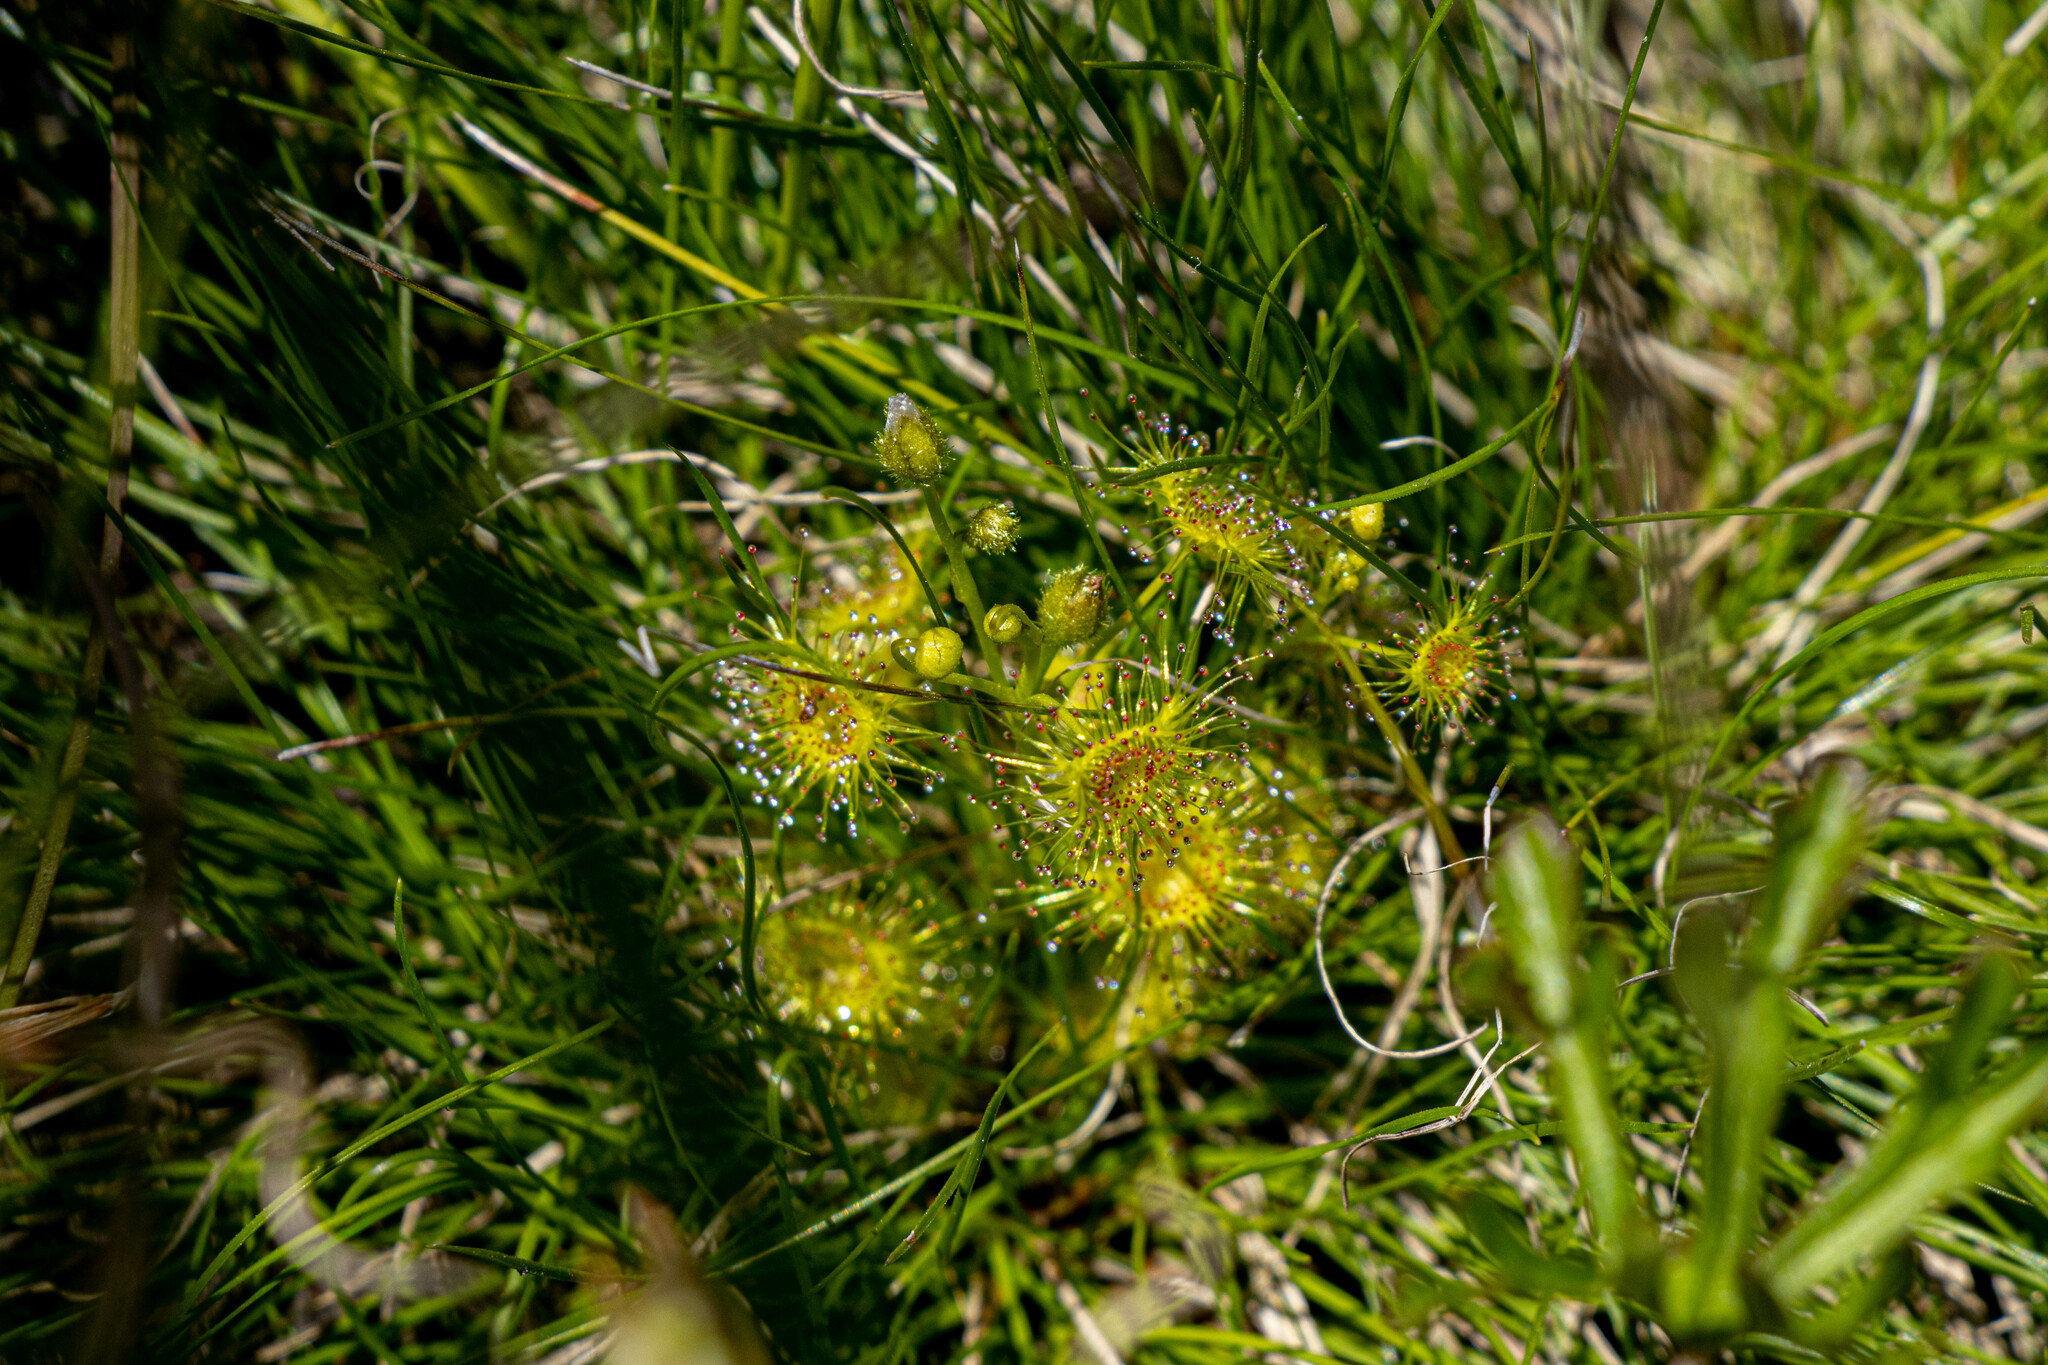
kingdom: Plantae
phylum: Tracheophyta
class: Magnoliopsida
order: Caryophyllales
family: Droseraceae
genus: Drosera
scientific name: Drosera hookeri
